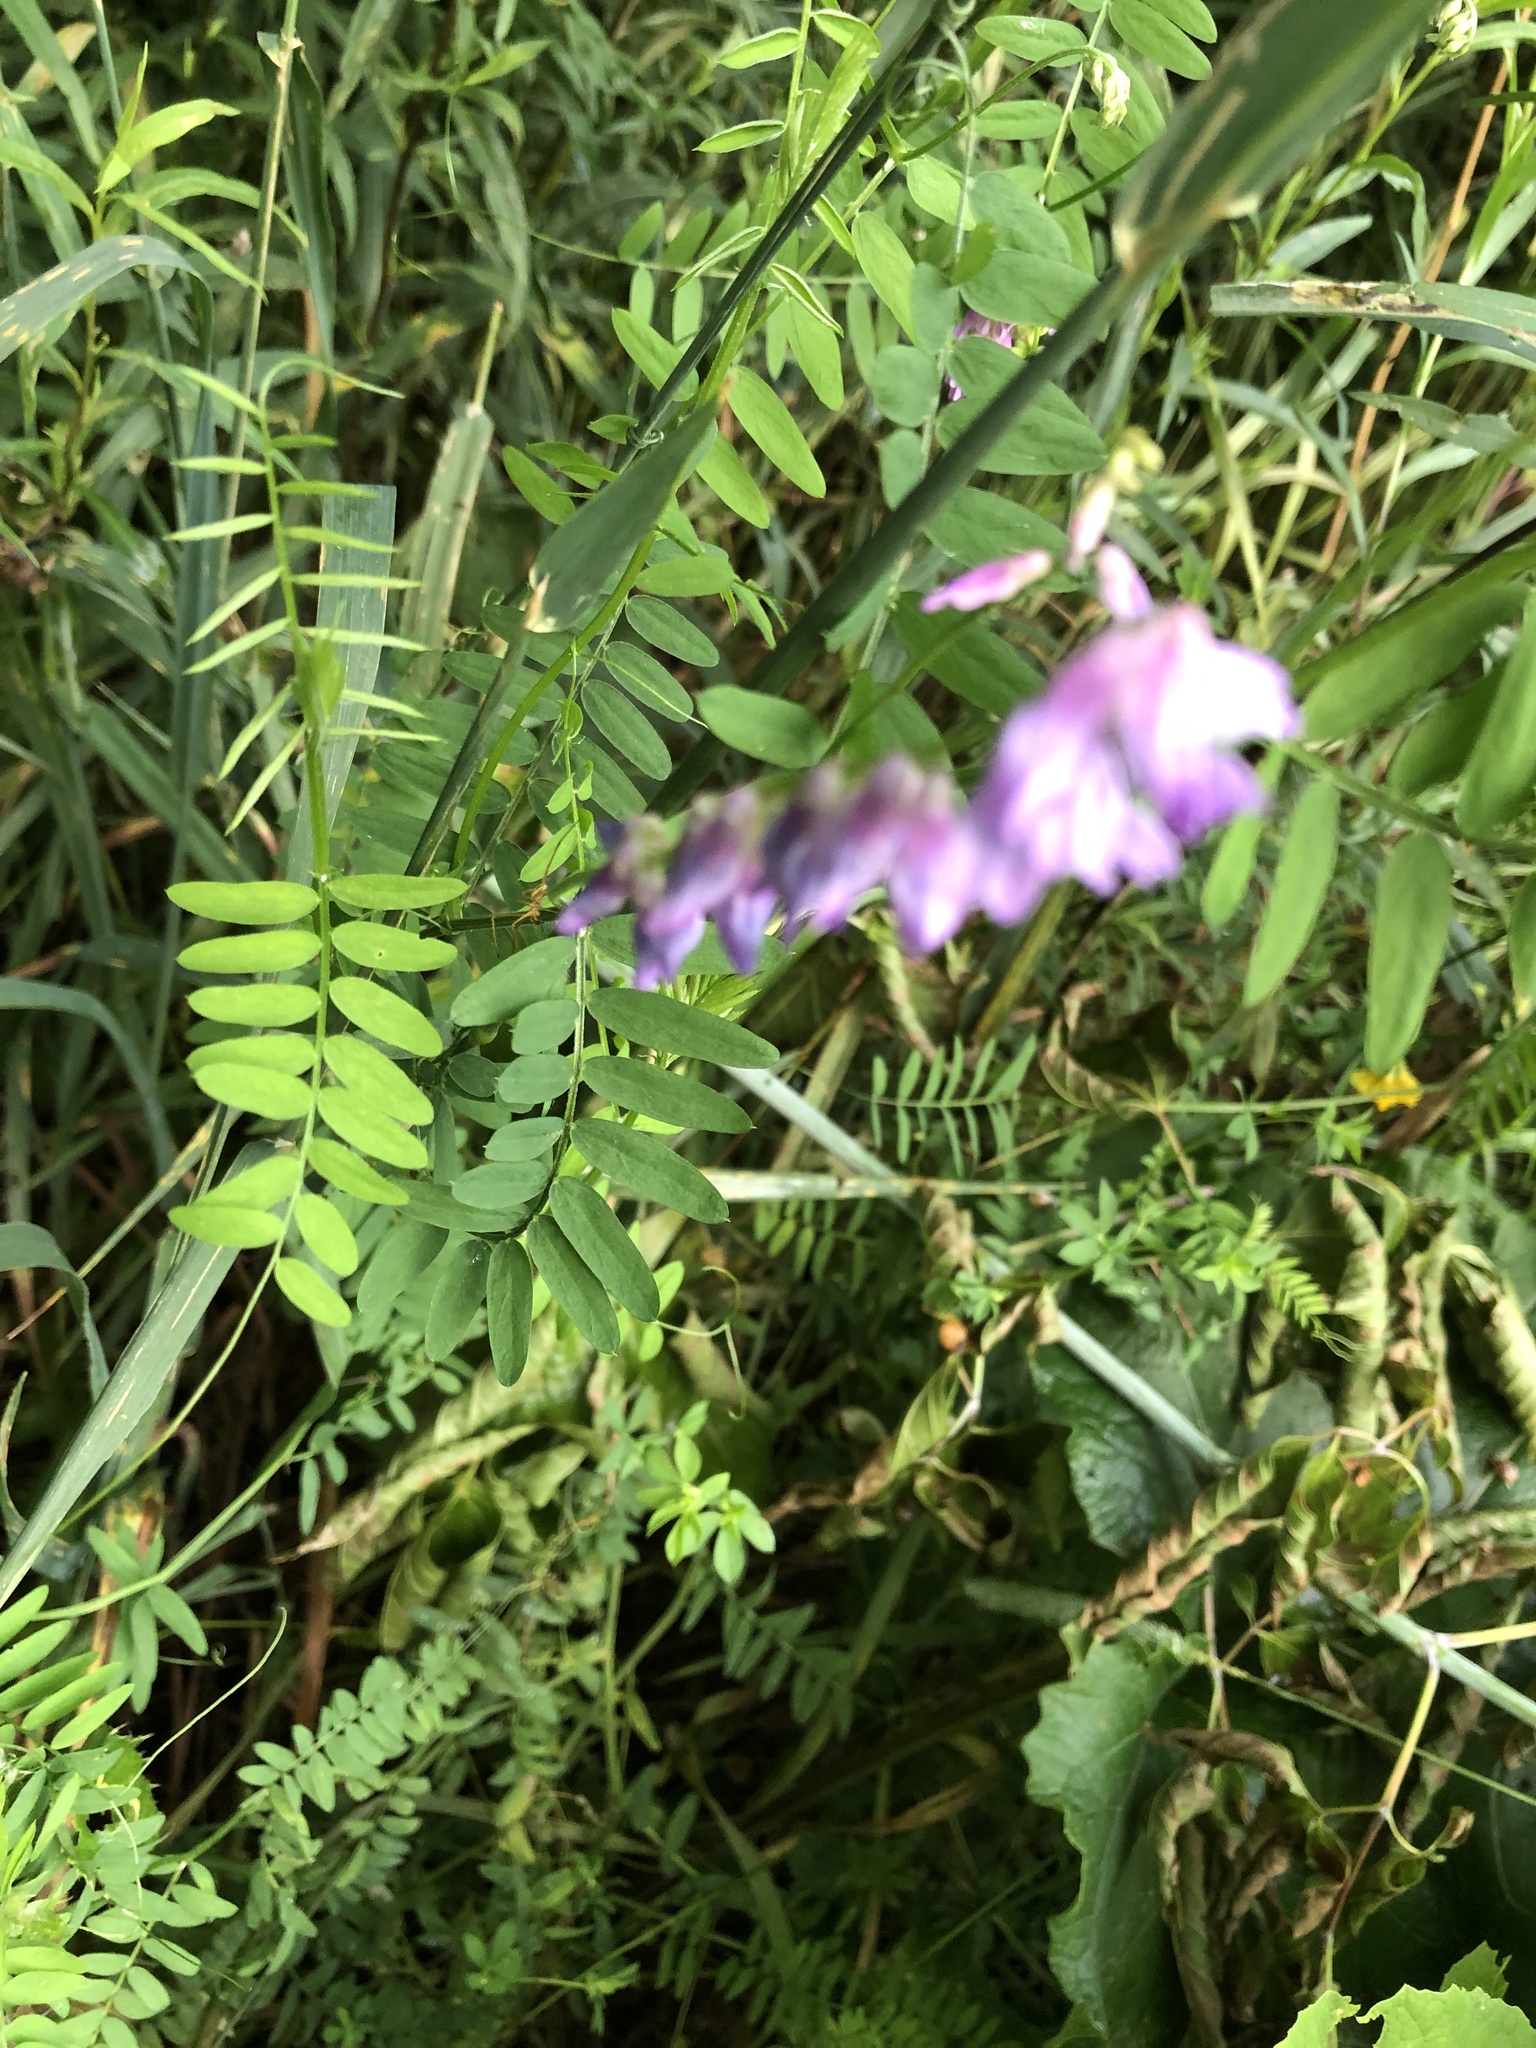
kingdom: Plantae
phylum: Tracheophyta
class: Magnoliopsida
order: Fabales
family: Fabaceae
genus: Vicia
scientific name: Vicia cracca
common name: Bird vetch
